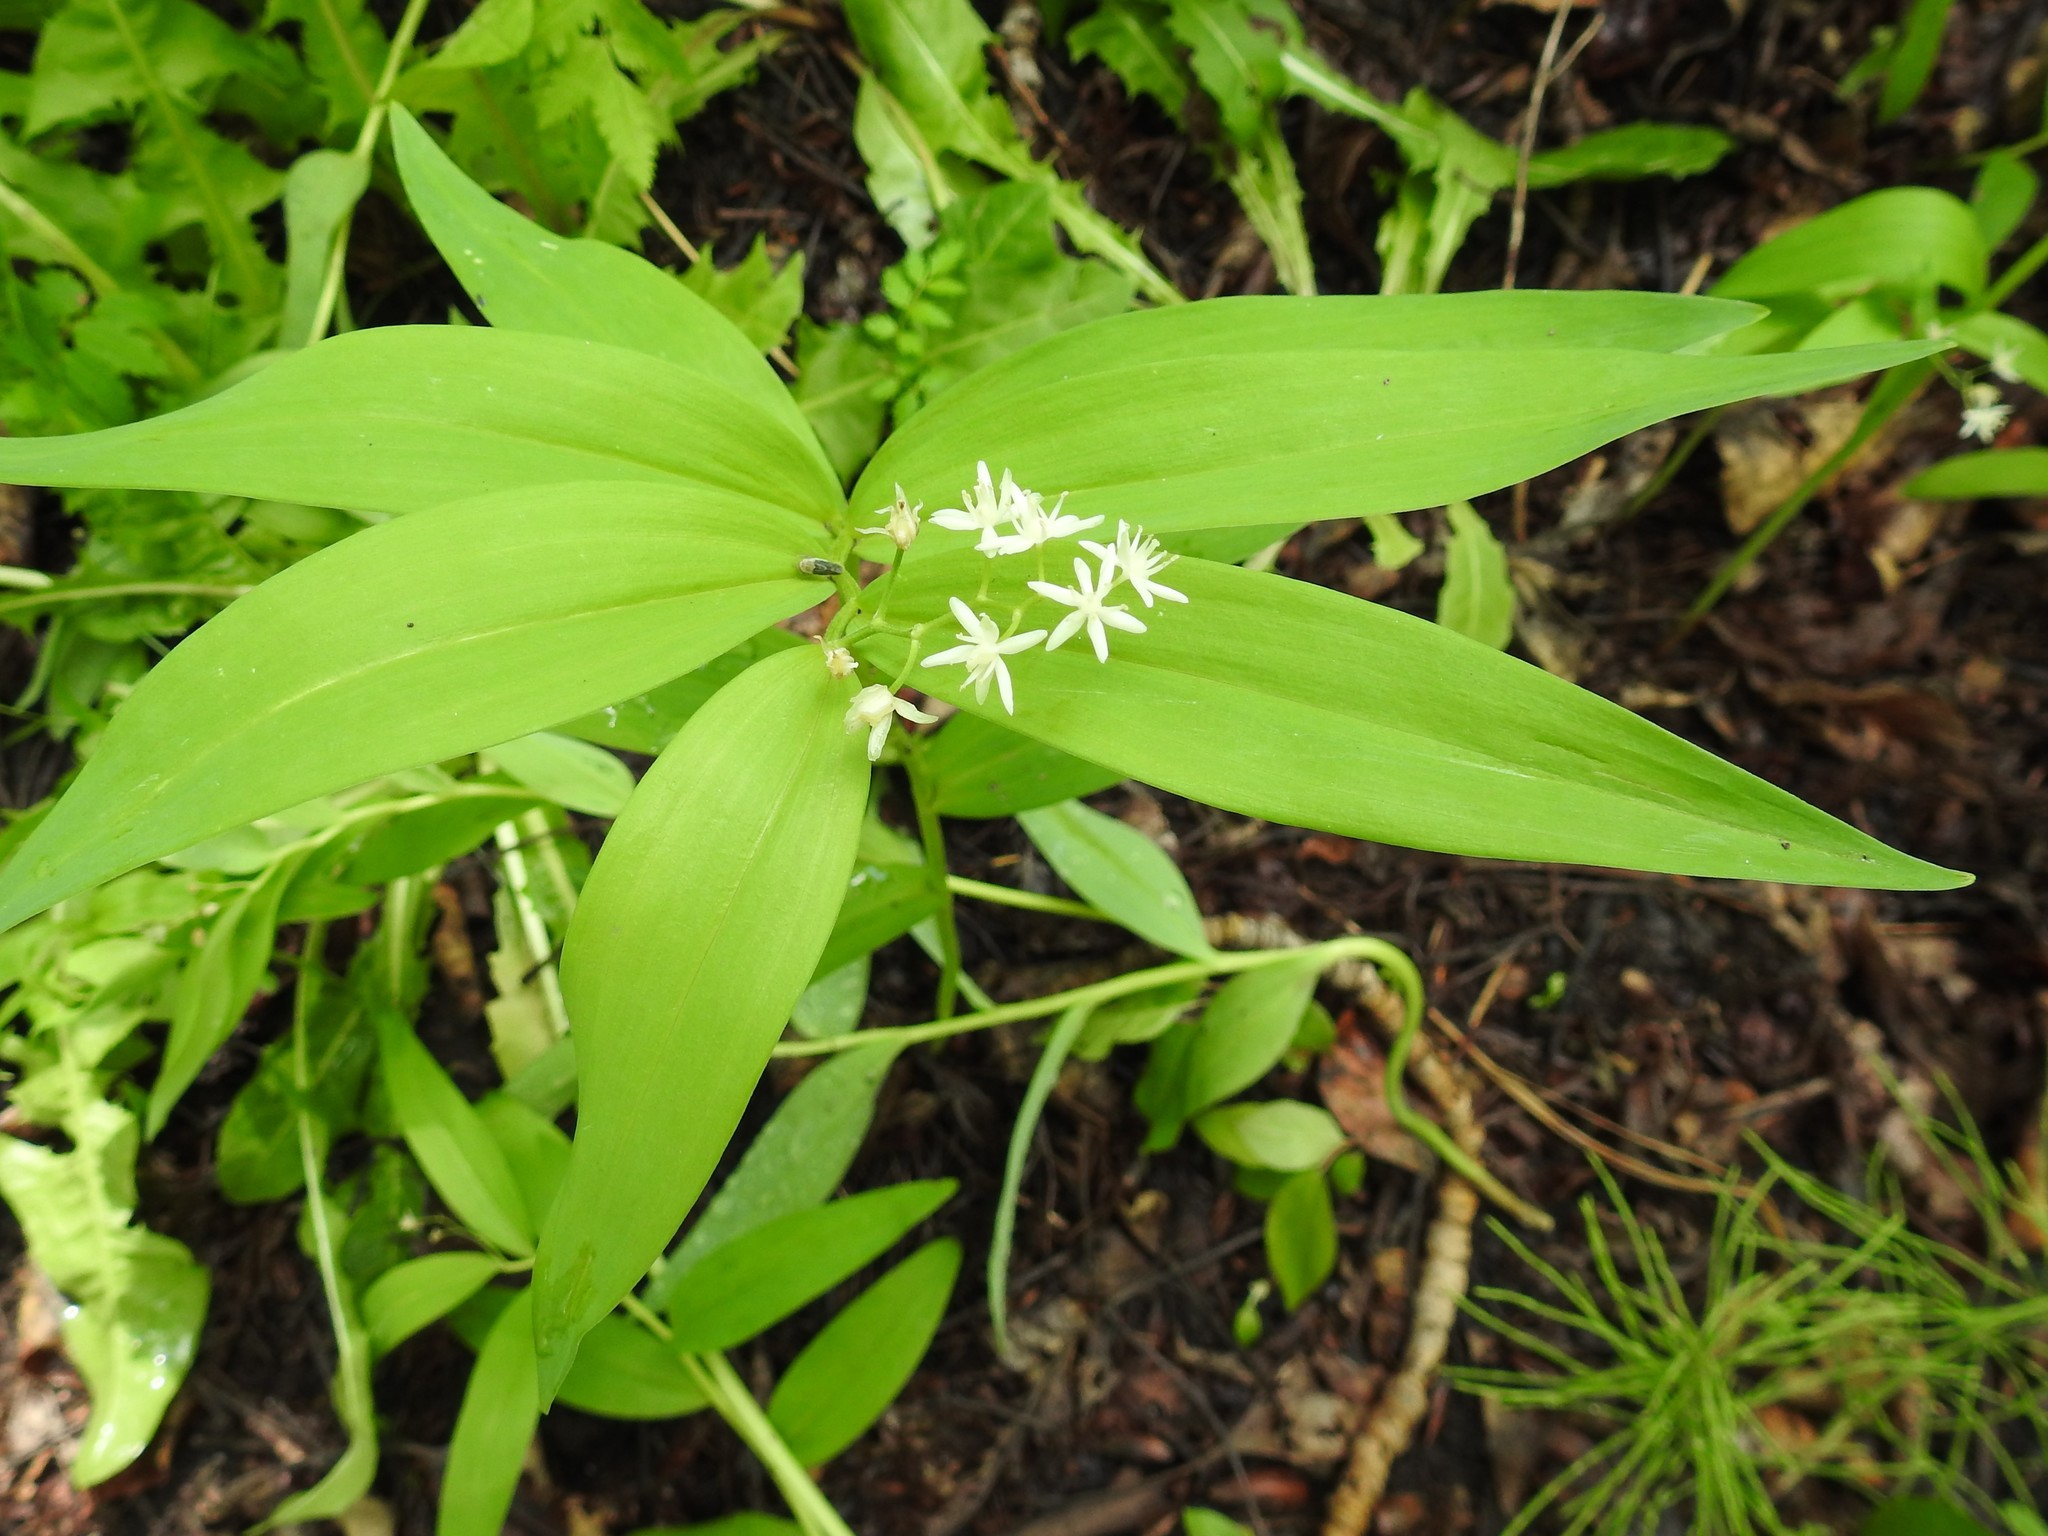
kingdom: Plantae
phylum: Tracheophyta
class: Liliopsida
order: Asparagales
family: Asparagaceae
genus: Maianthemum
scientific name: Maianthemum stellatum
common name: Little false solomon's seal
